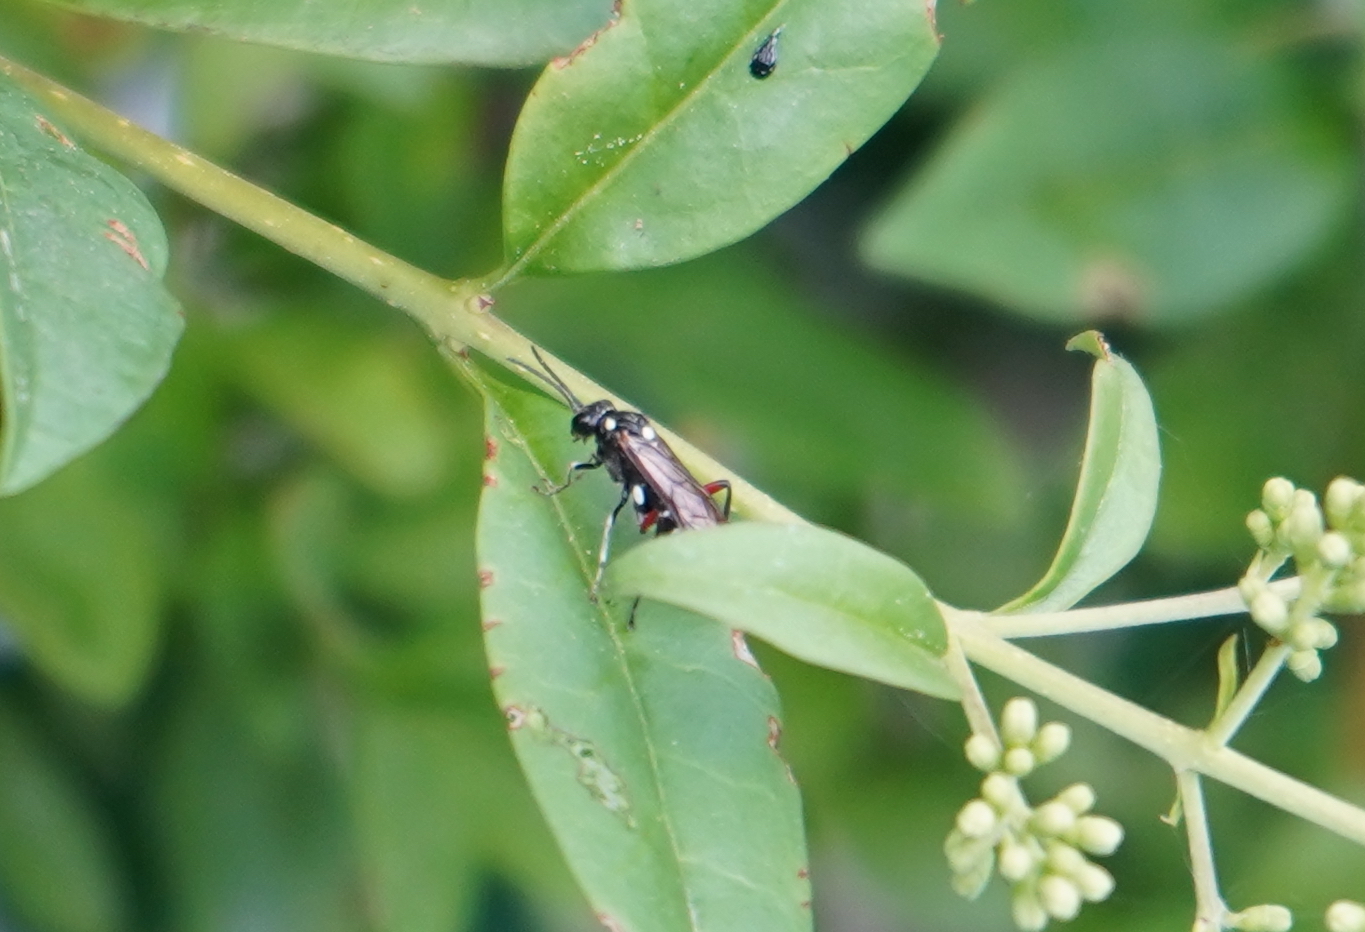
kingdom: Animalia
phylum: Arthropoda
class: Insecta
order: Hymenoptera
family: Tenthredinidae
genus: Macrophya
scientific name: Macrophya punctumalbum
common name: Sawfly
